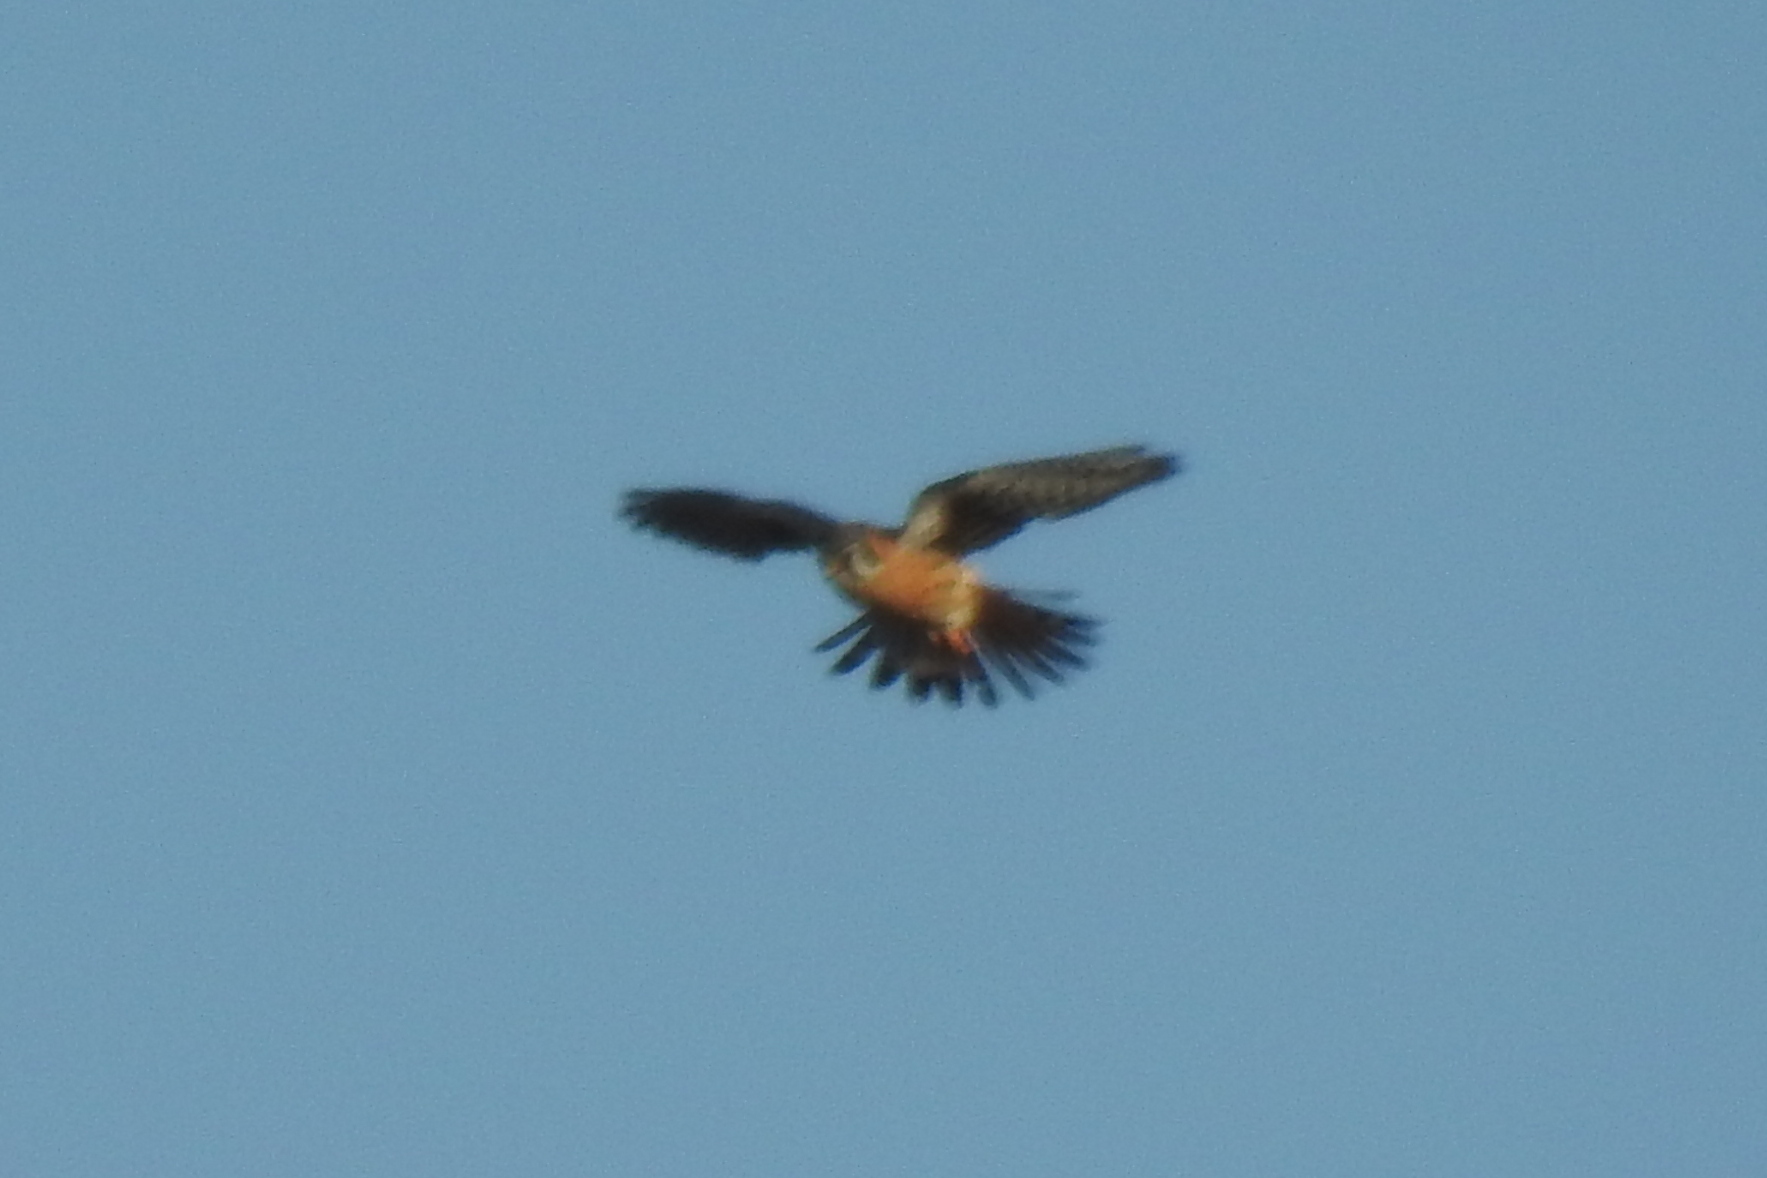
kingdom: Animalia
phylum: Chordata
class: Aves
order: Falconiformes
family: Falconidae
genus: Falco
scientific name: Falco sparverius
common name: American kestrel
